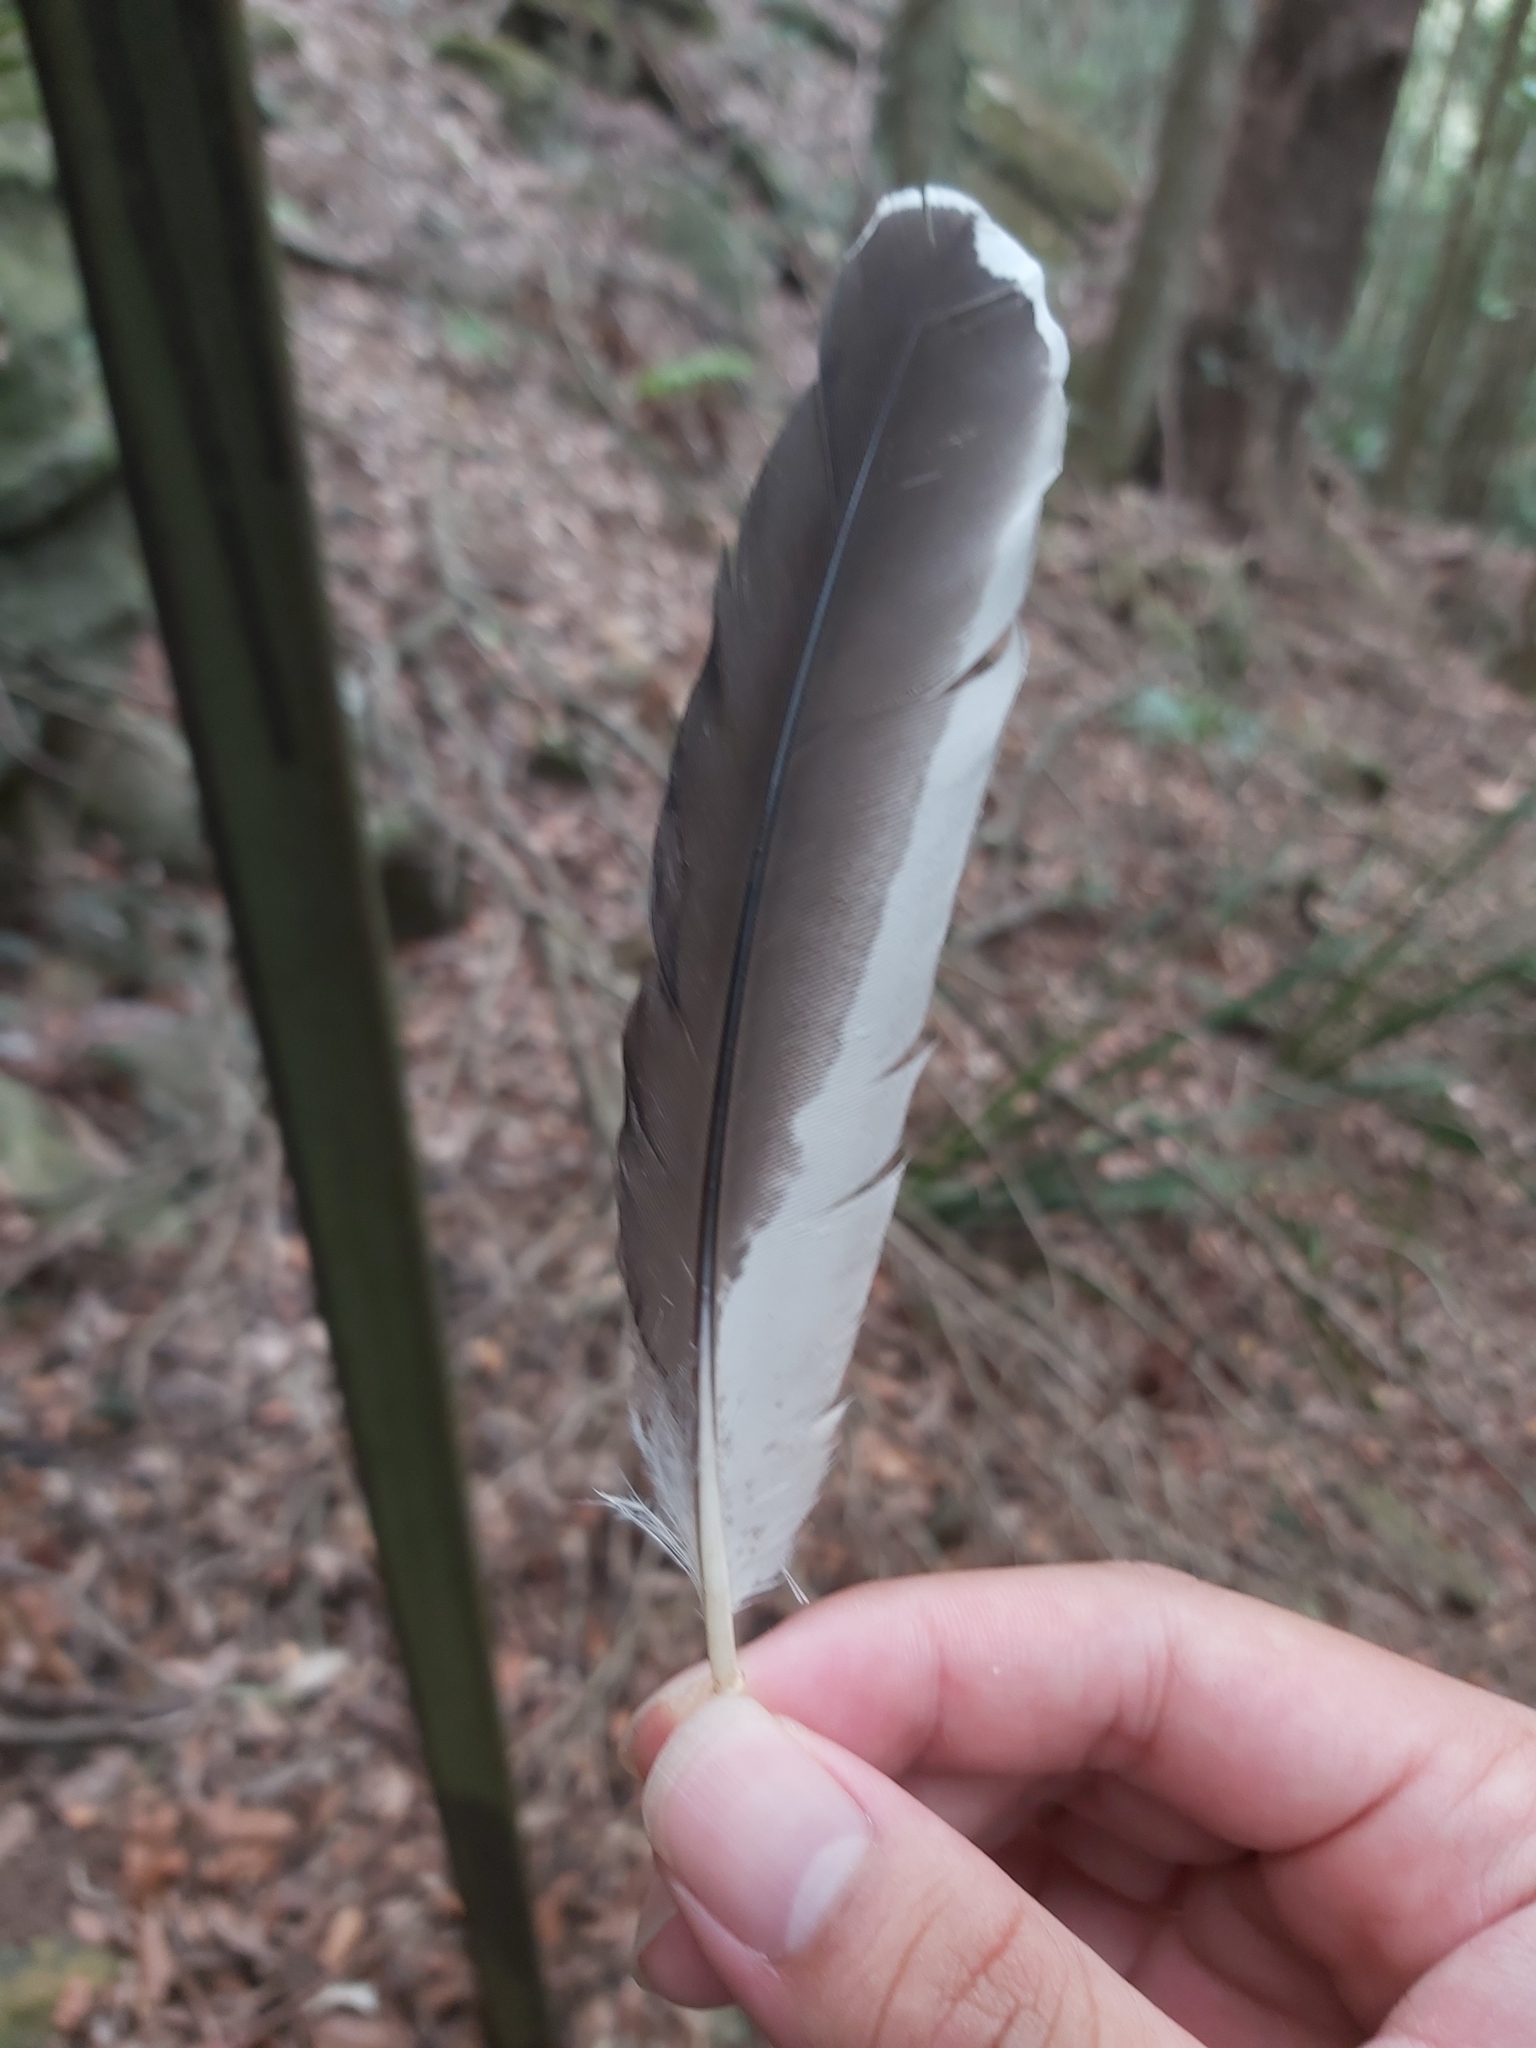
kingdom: Animalia
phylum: Chordata
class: Aves
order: Coraciiformes
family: Alcedinidae
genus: Dacelo
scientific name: Dacelo novaeguineae
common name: Laughing kookaburra
